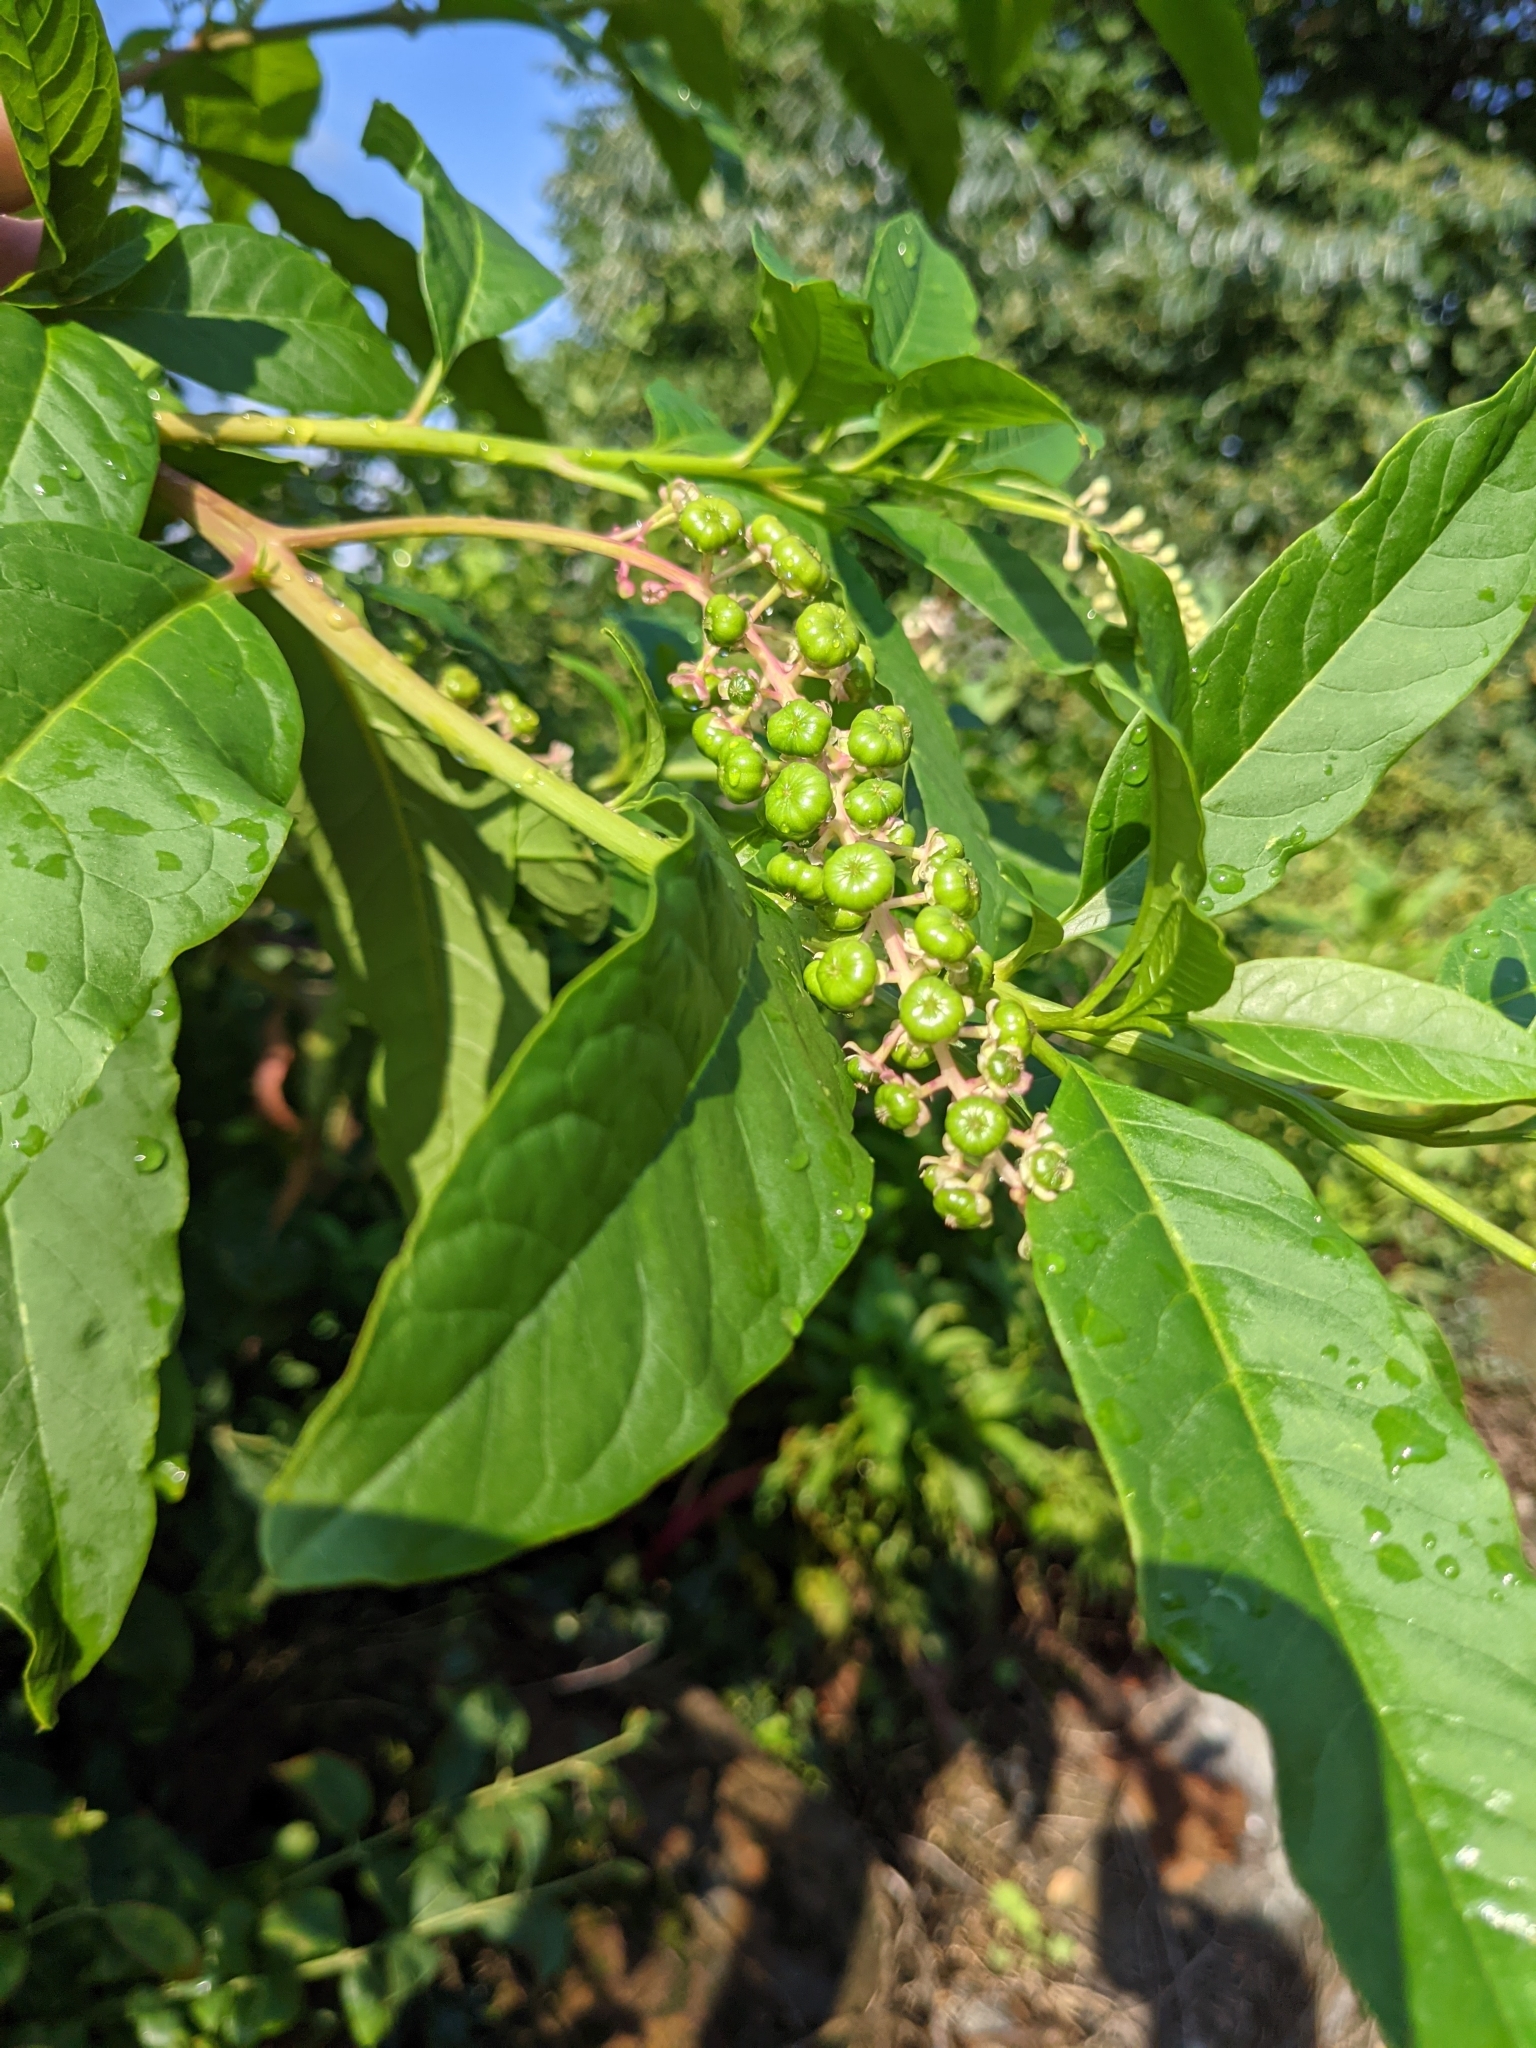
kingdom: Plantae
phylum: Tracheophyta
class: Magnoliopsida
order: Caryophyllales
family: Phytolaccaceae
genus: Phytolacca
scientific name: Phytolacca americana
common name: American pokeweed
